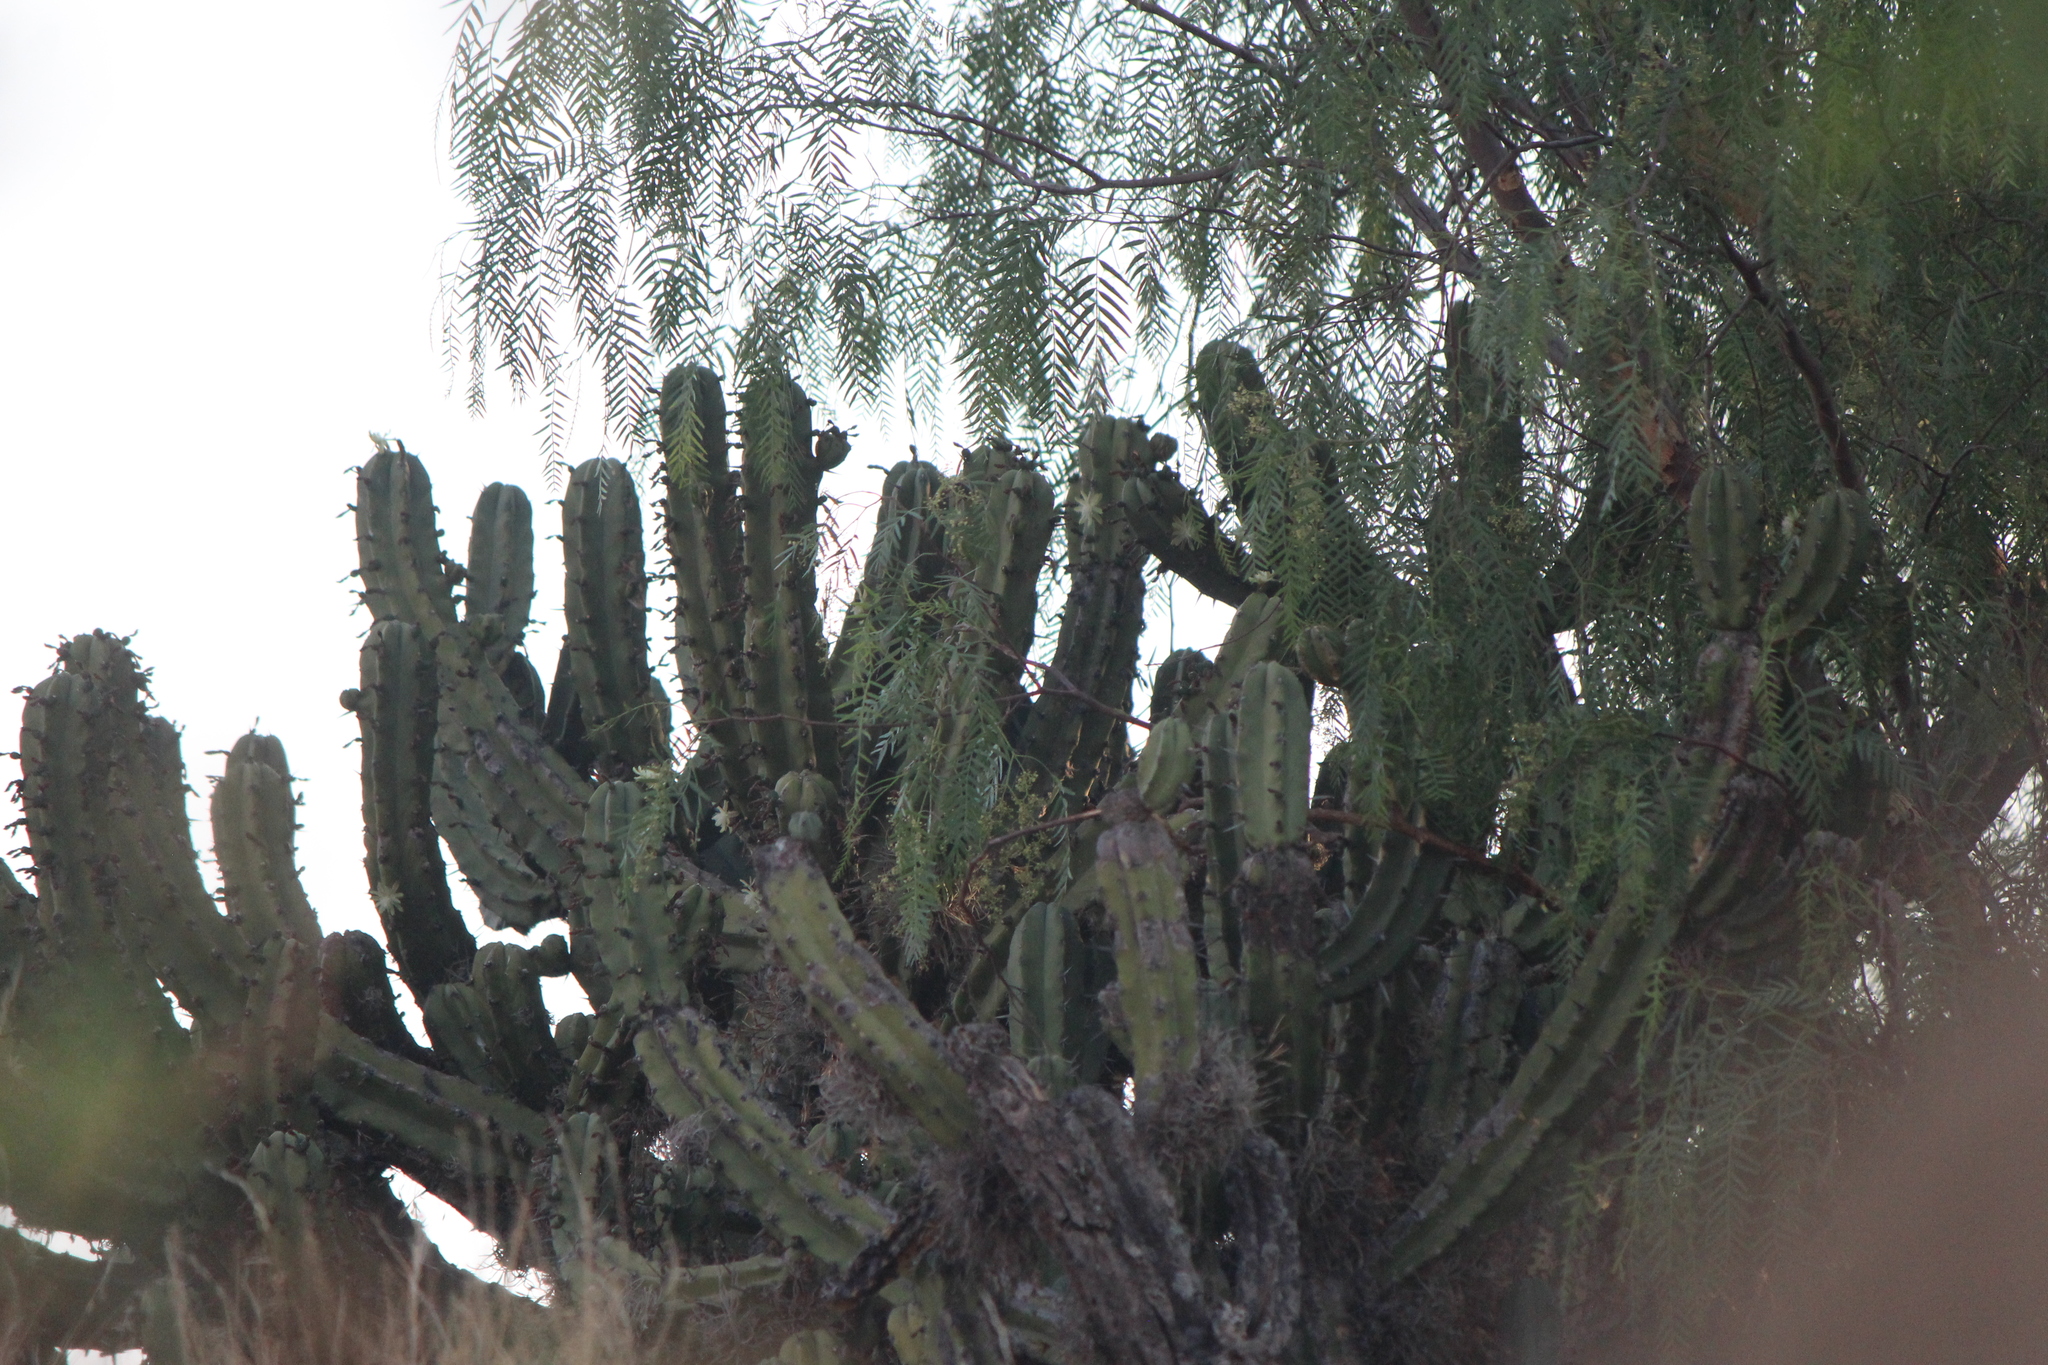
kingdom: Plantae
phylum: Tracheophyta
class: Magnoliopsida
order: Caryophyllales
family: Cactaceae
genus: Myrtillocactus
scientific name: Myrtillocactus geometrizans
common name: Bilberry cactus
